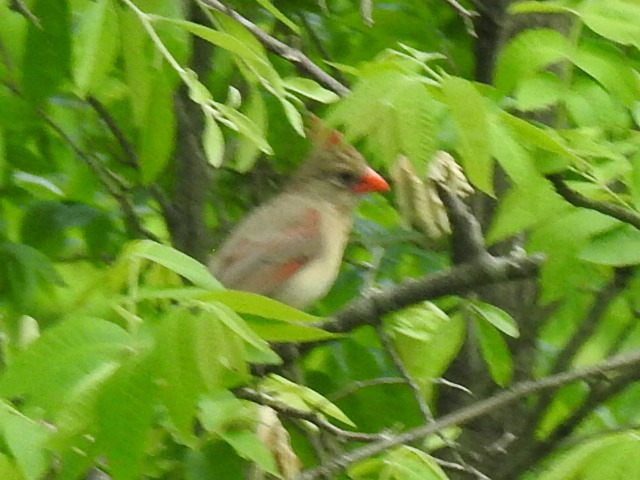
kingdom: Animalia
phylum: Chordata
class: Aves
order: Passeriformes
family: Cardinalidae
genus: Cardinalis
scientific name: Cardinalis cardinalis
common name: Northern cardinal
